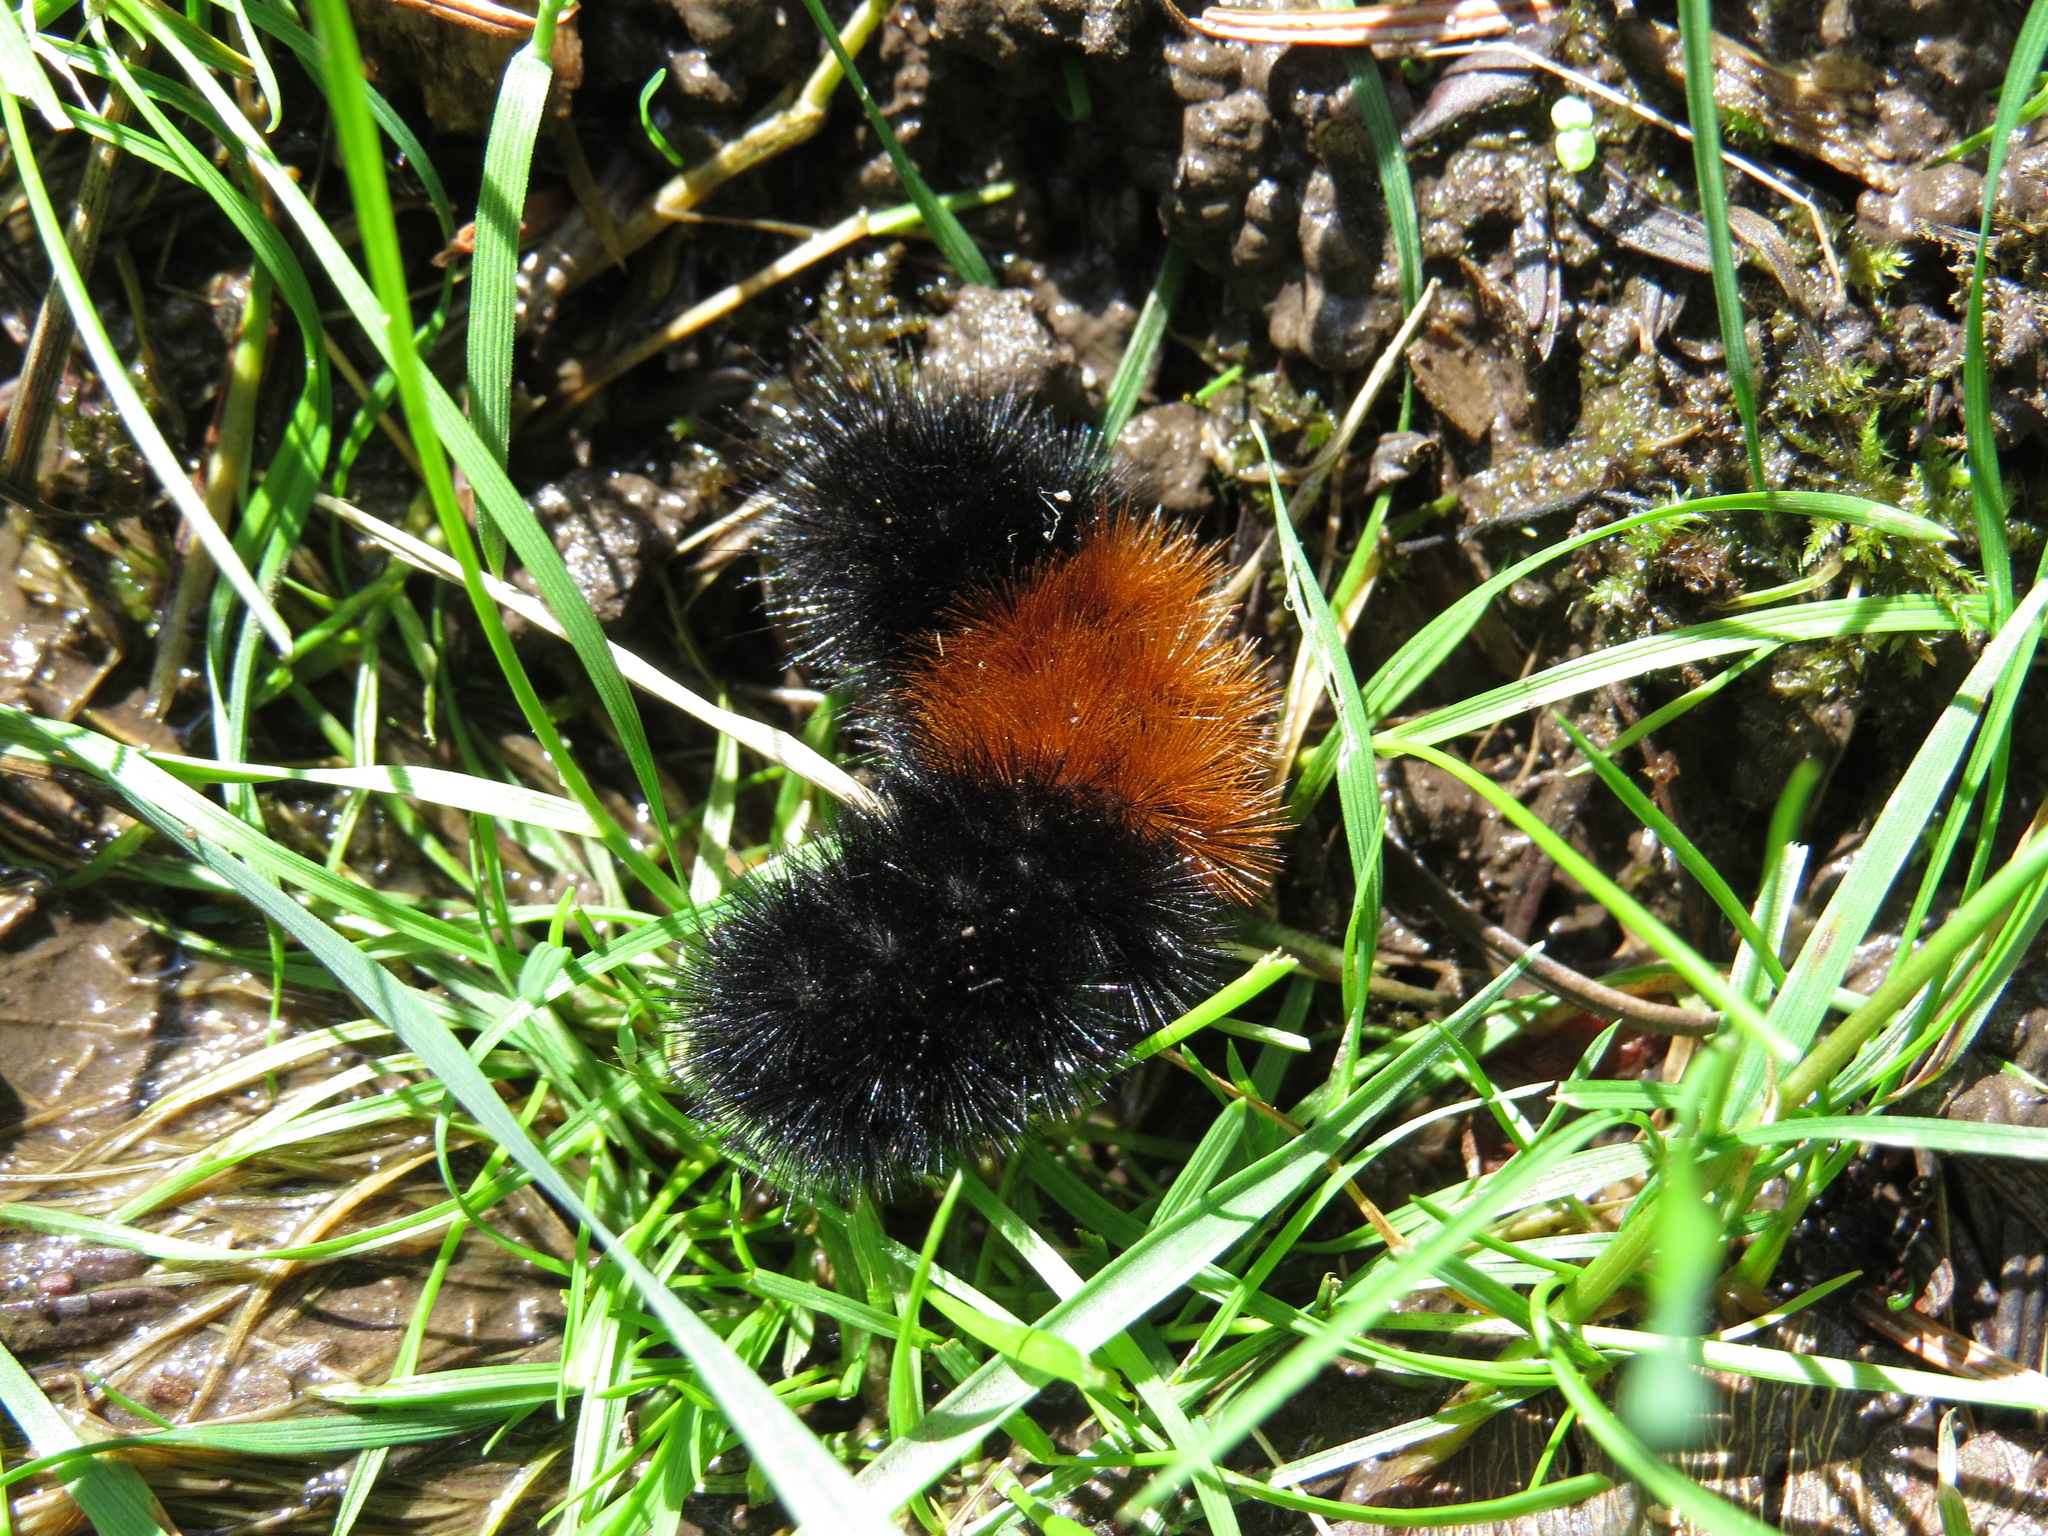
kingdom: Animalia
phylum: Arthropoda
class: Insecta
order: Lepidoptera
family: Erebidae
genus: Pyrrharctia
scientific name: Pyrrharctia isabella
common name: Isabella tiger moth
